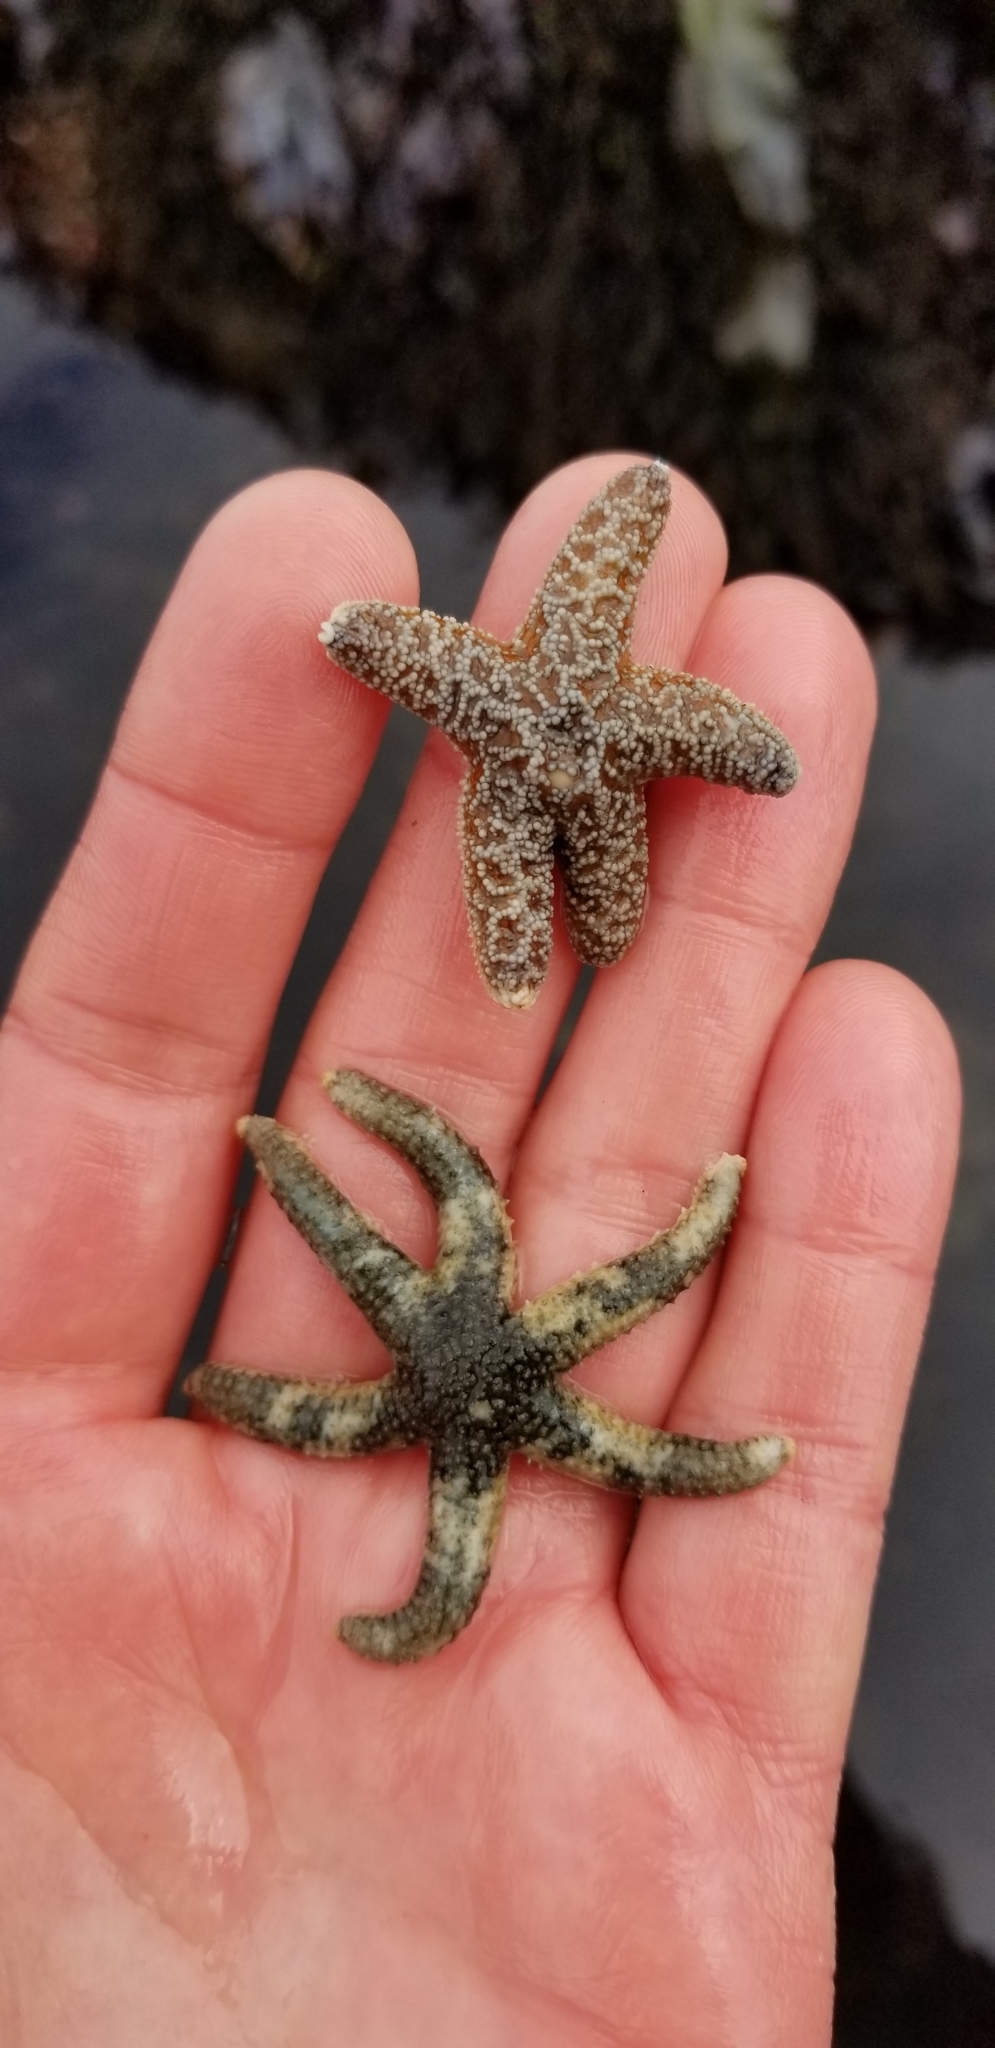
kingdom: Animalia
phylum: Echinodermata
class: Asteroidea
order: Forcipulatida
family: Asteriidae
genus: Pisaster
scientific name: Pisaster ochraceus
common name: Ochre stars
